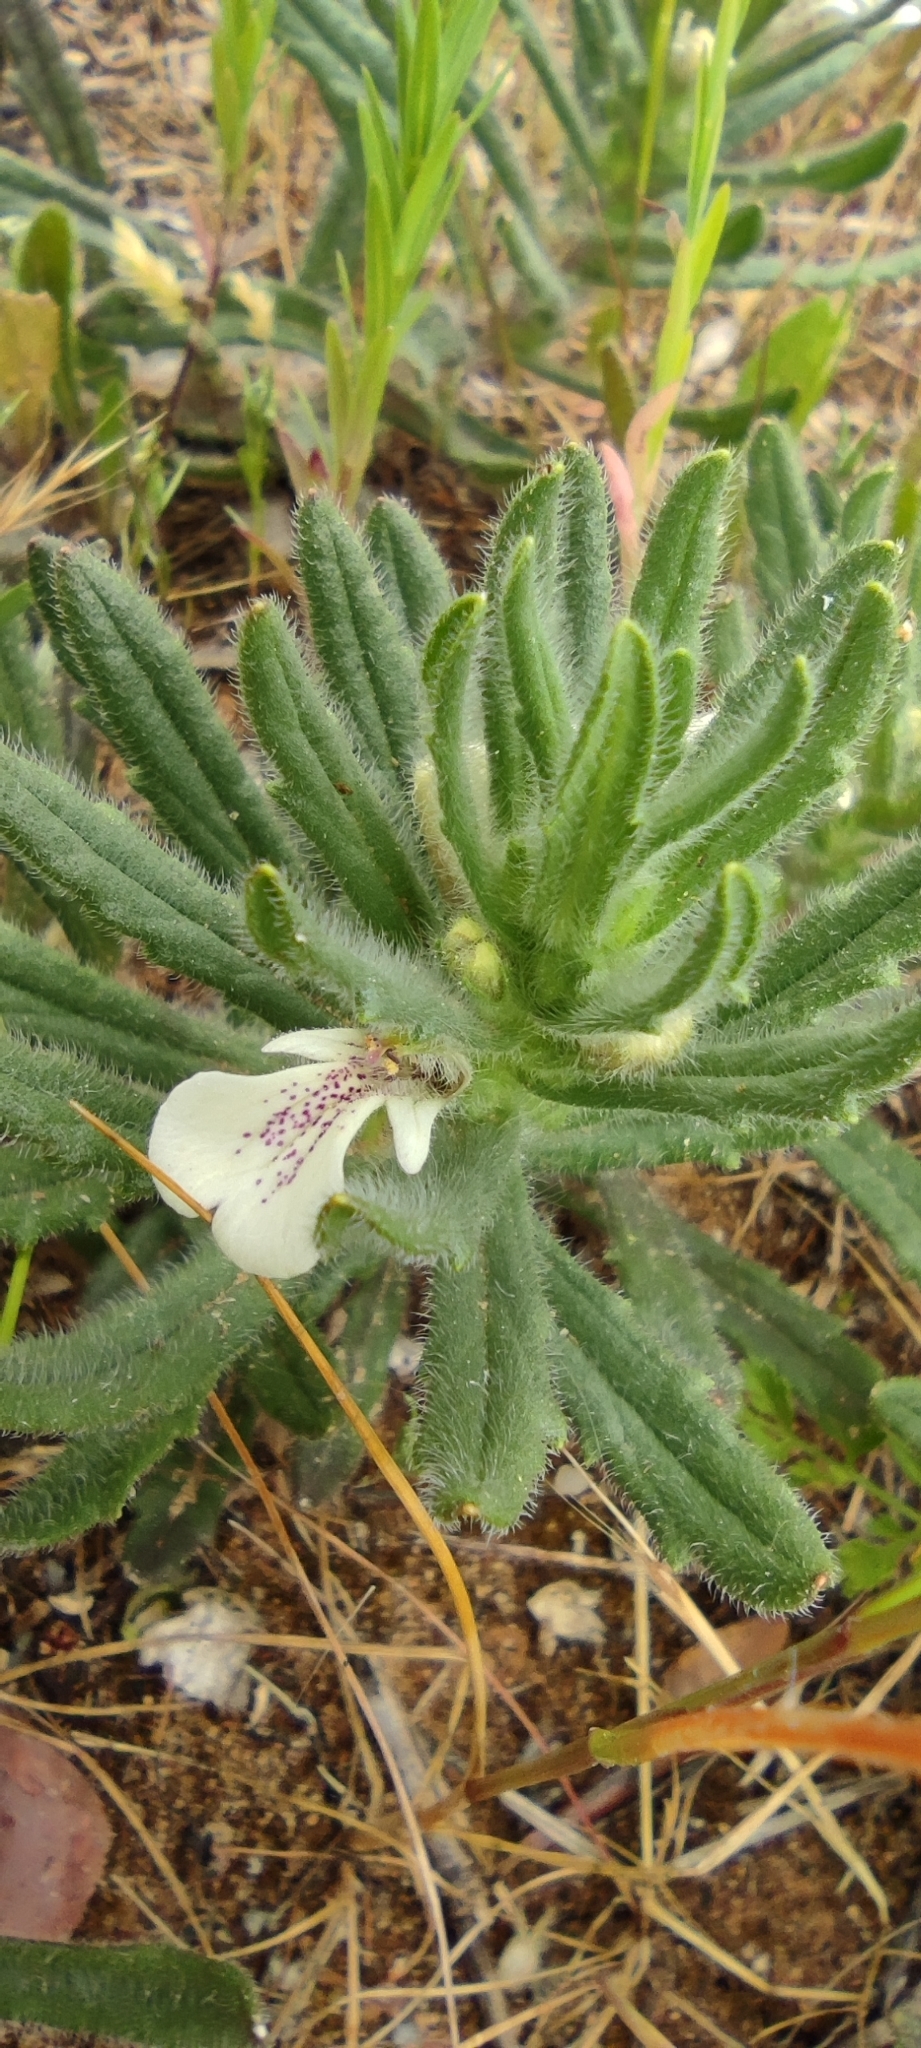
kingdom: Plantae
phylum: Tracheophyta
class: Magnoliopsida
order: Lamiales
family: Lamiaceae
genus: Ajuga
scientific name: Ajuga iva
